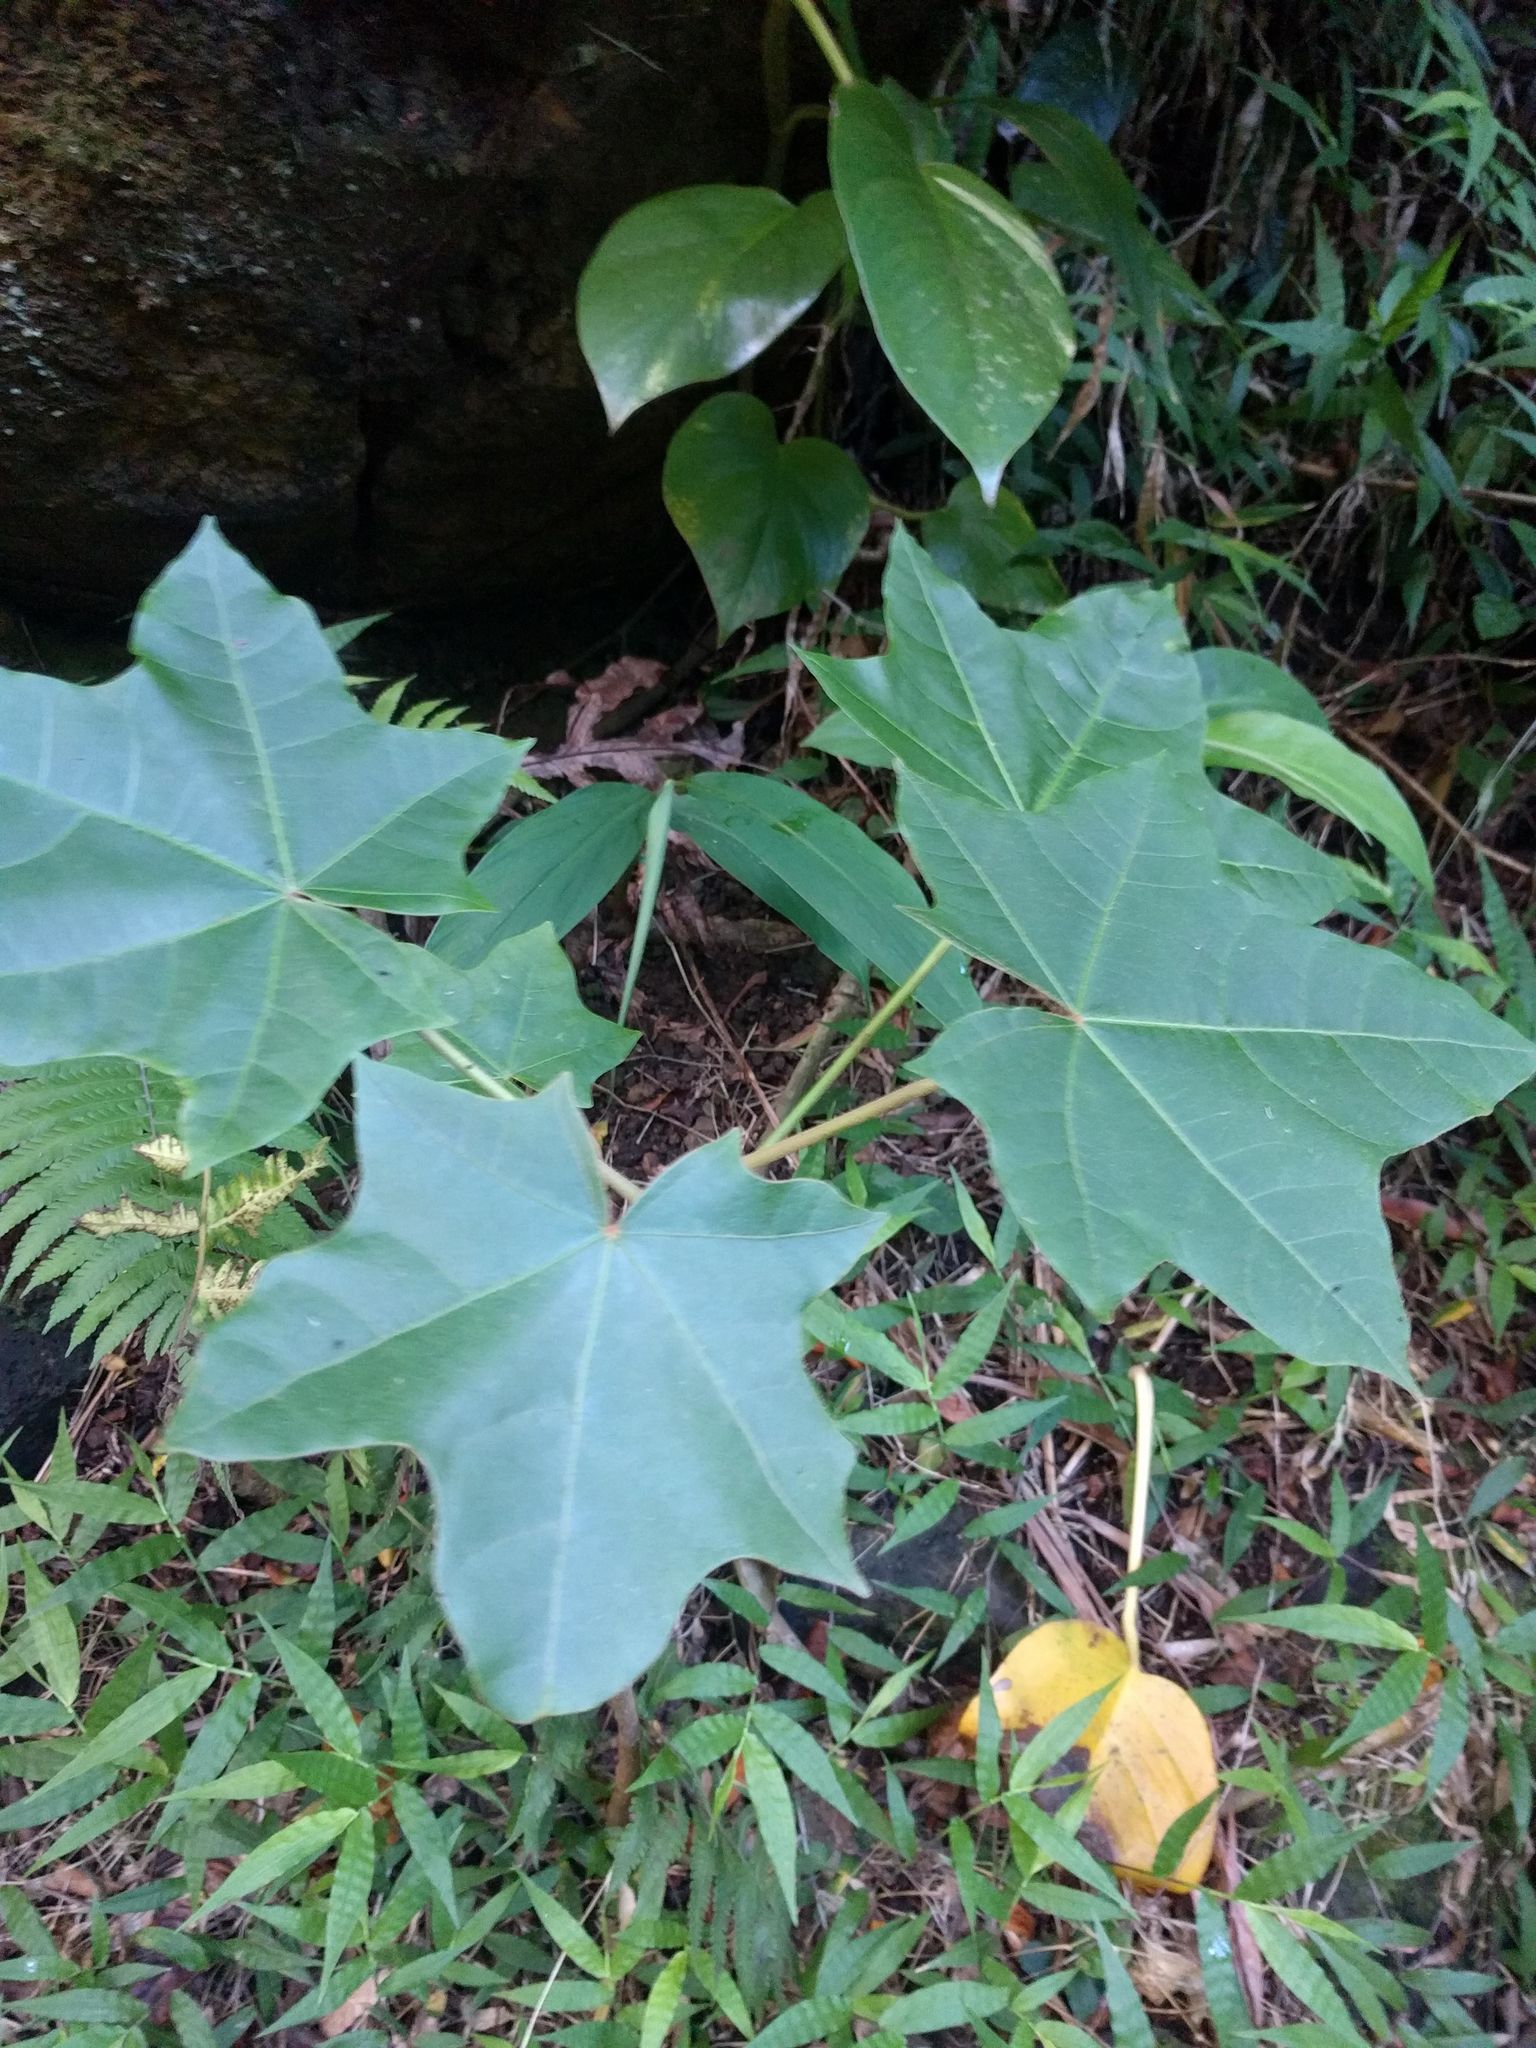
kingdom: Plantae
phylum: Tracheophyta
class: Magnoliopsida
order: Malpighiales
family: Euphorbiaceae
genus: Aleurites
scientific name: Aleurites moluccanus
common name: Candlenut tree
